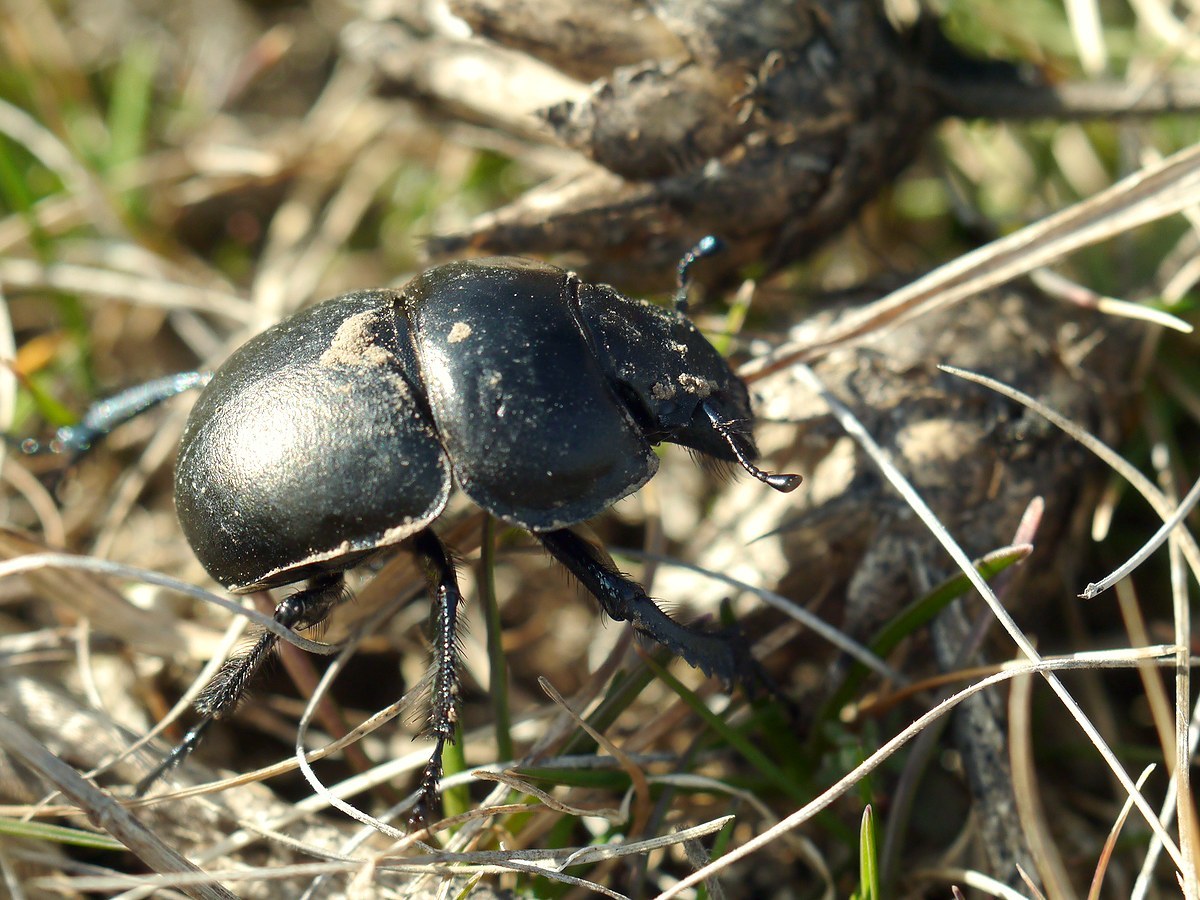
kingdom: Animalia
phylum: Arthropoda
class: Insecta
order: Coleoptera
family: Geotrupidae
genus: Lethrus
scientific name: Lethrus apterus
